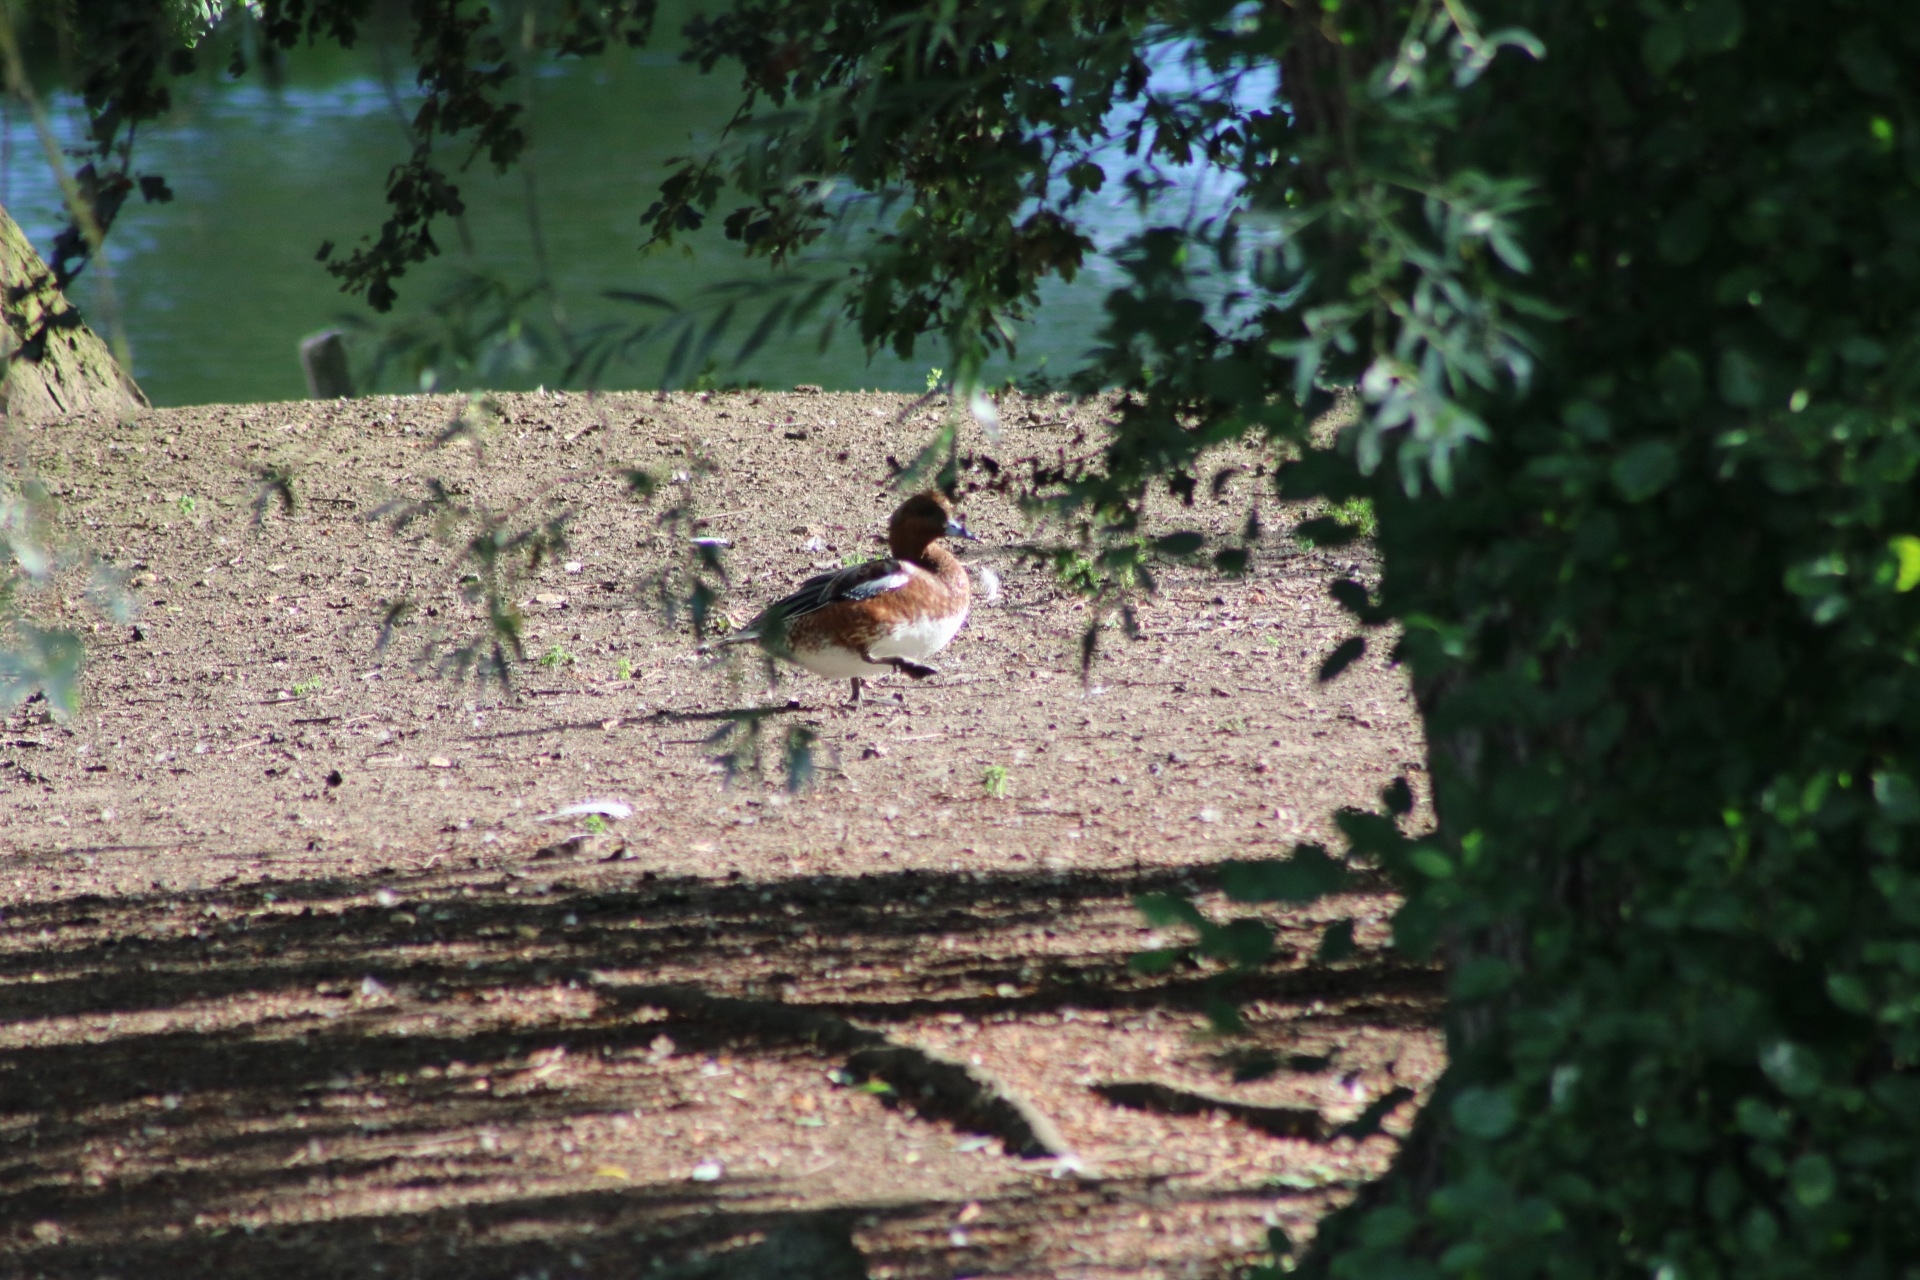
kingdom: Animalia
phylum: Chordata
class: Aves
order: Anseriformes
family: Anatidae
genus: Mareca
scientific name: Mareca penelope
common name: Eurasian wigeon
